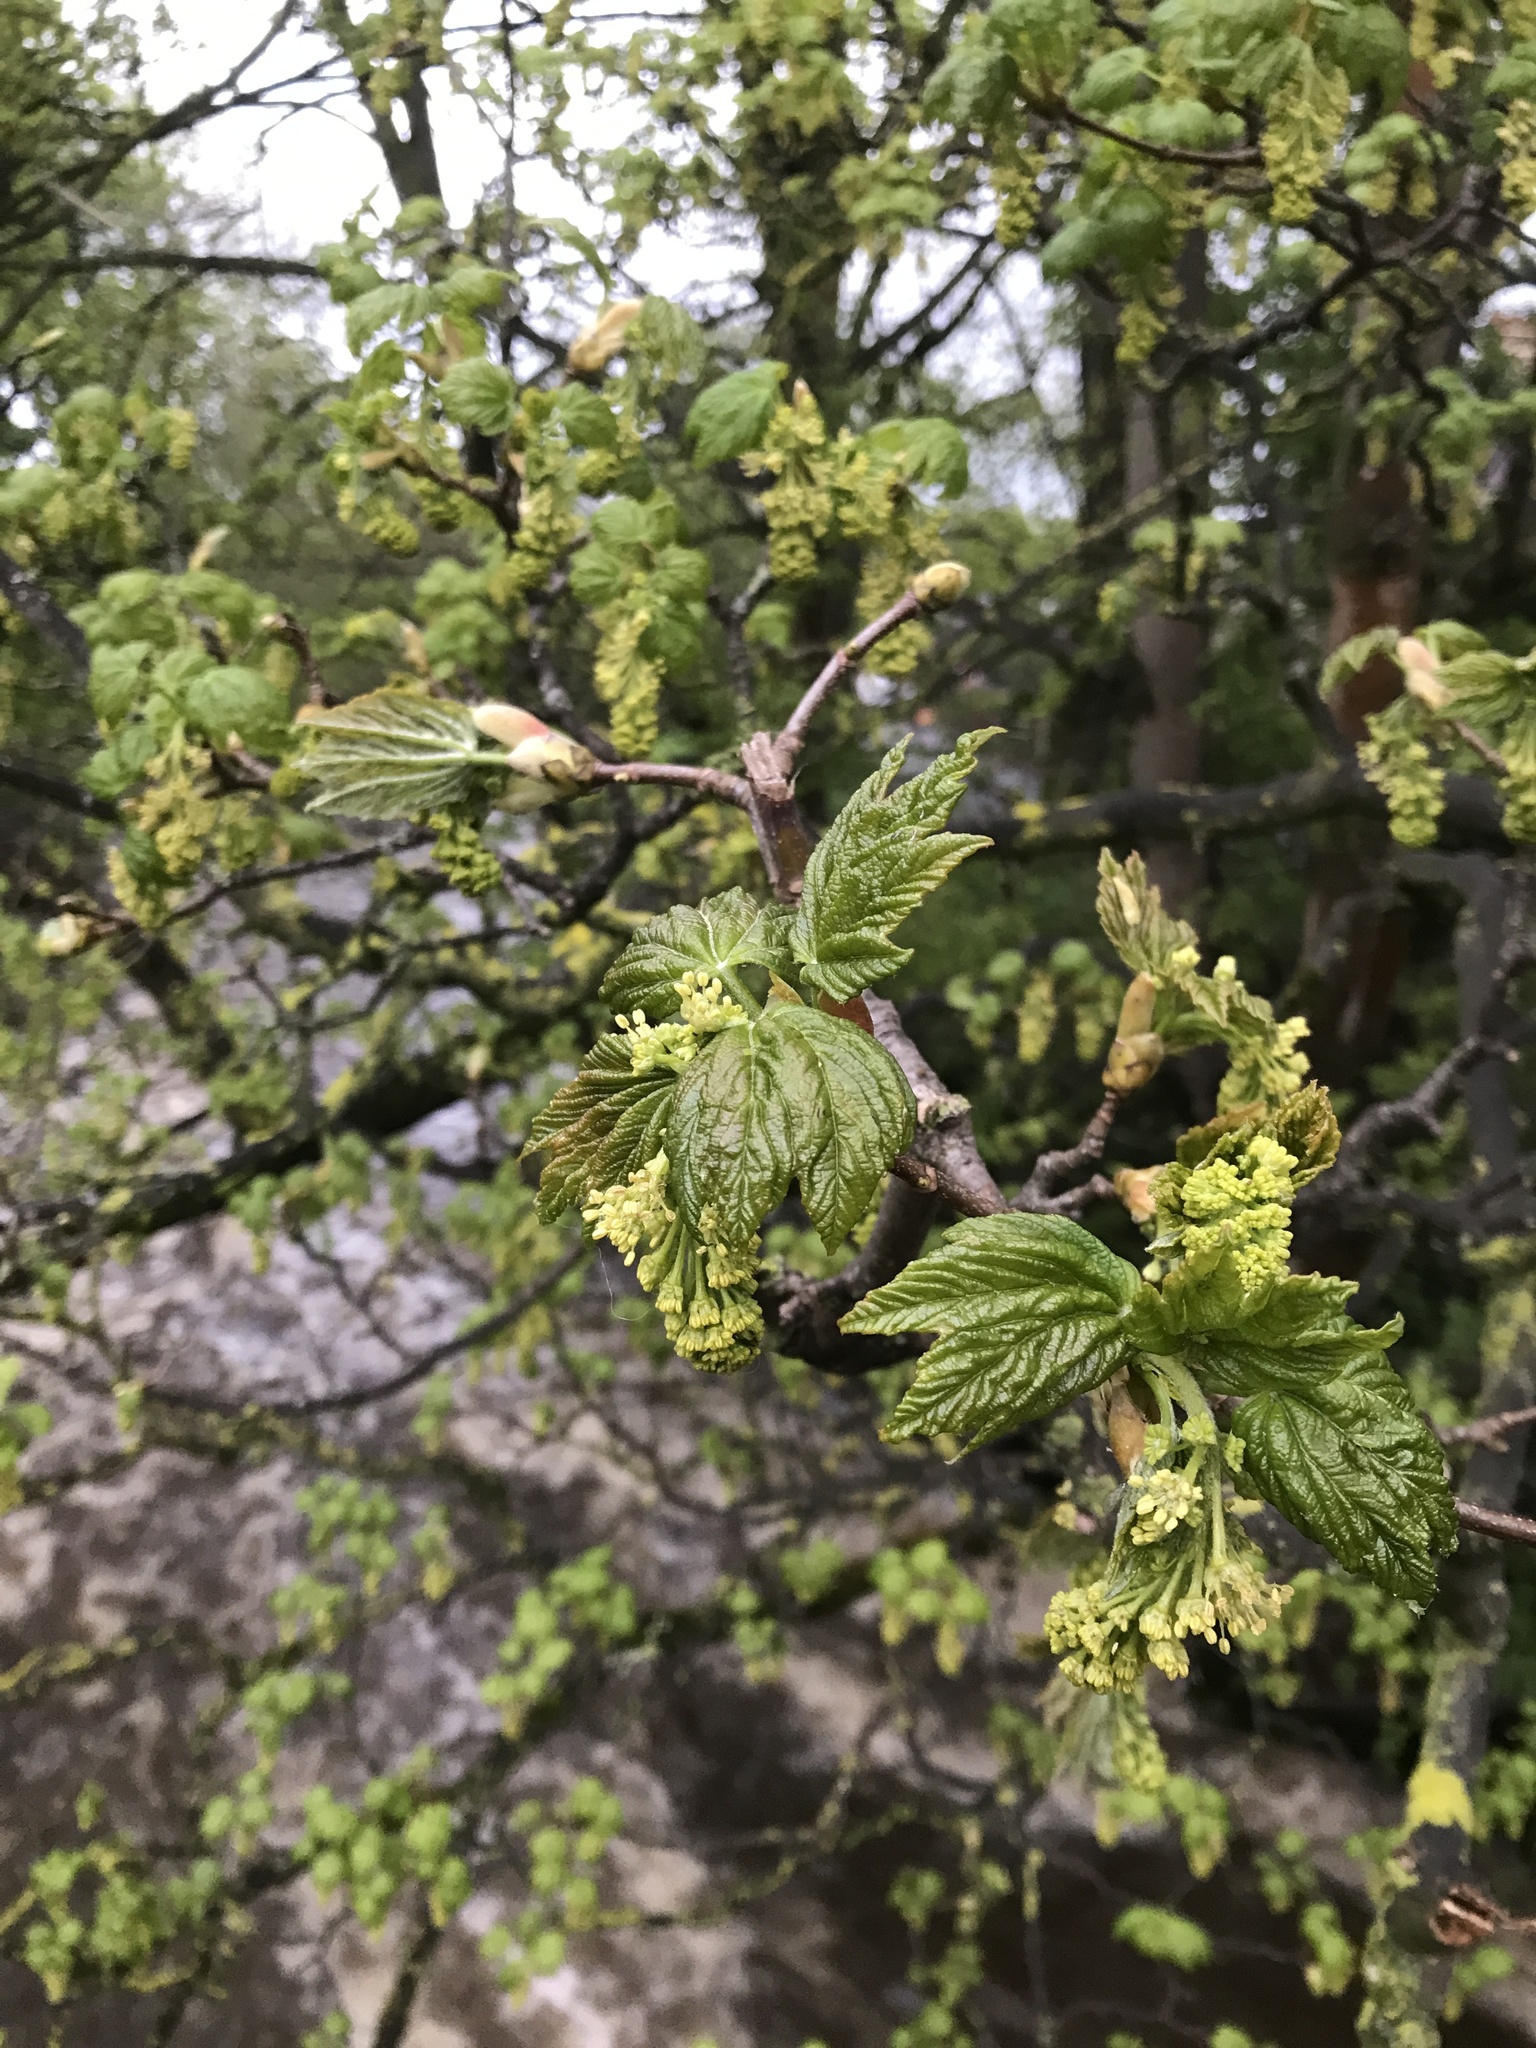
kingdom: Plantae
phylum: Tracheophyta
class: Magnoliopsida
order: Sapindales
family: Sapindaceae
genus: Acer
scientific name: Acer pseudoplatanus
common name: Sycamore
